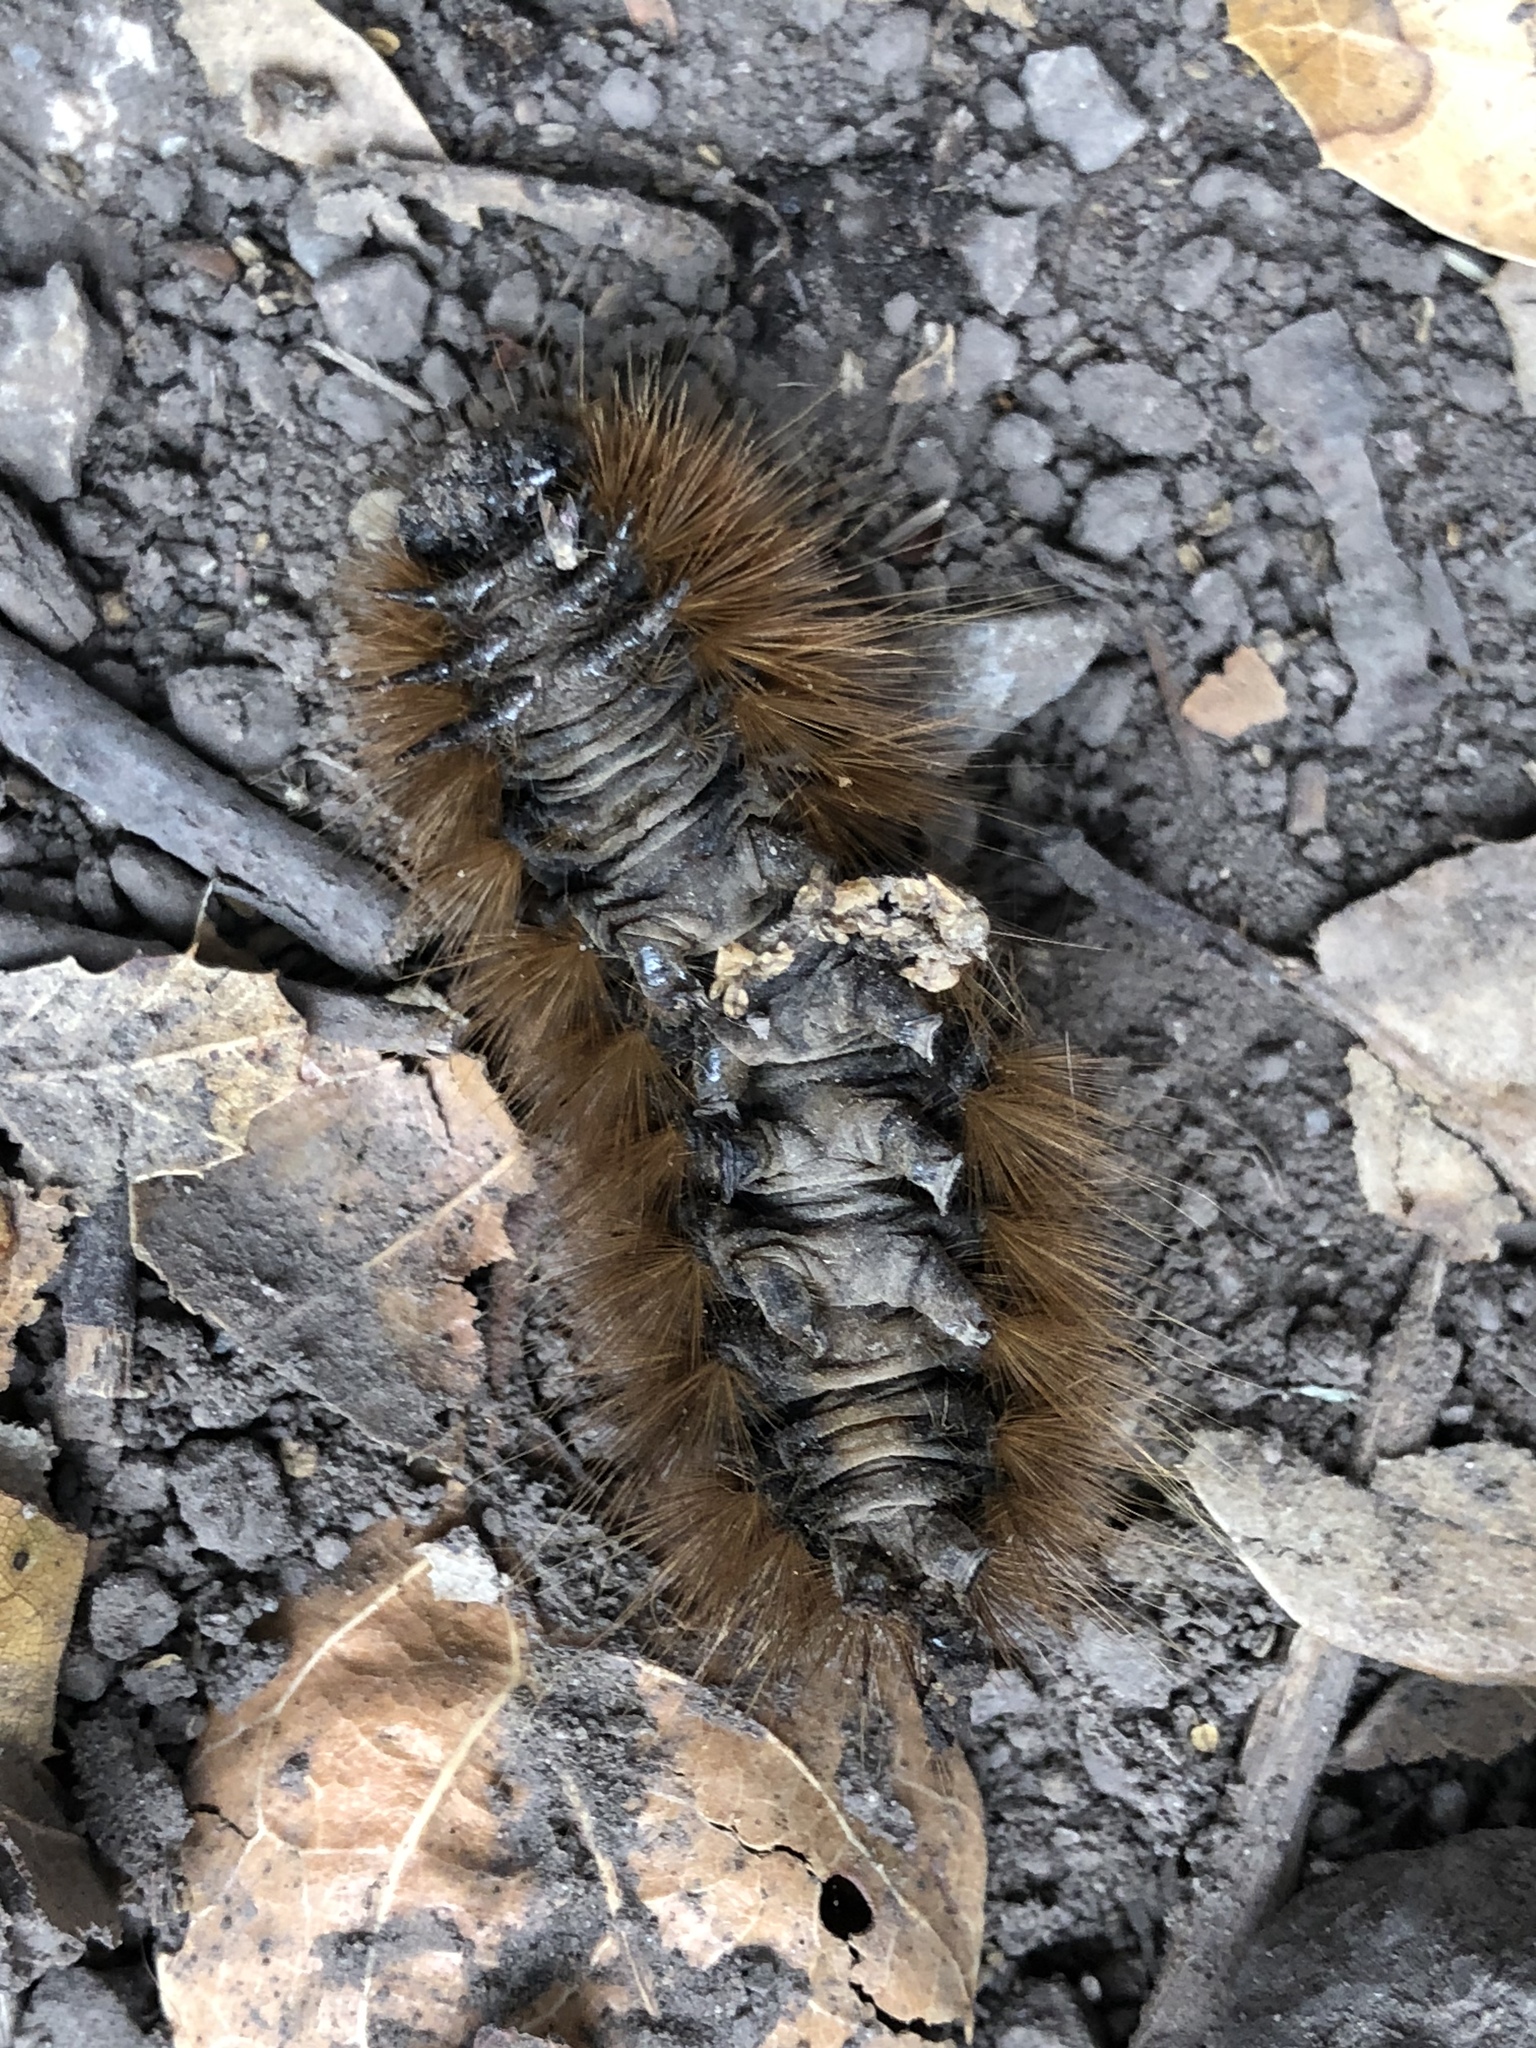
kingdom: Animalia
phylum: Arthropoda
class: Insecta
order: Lepidoptera
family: Erebidae
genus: Hemihyalea
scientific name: Hemihyalea edwardsii
